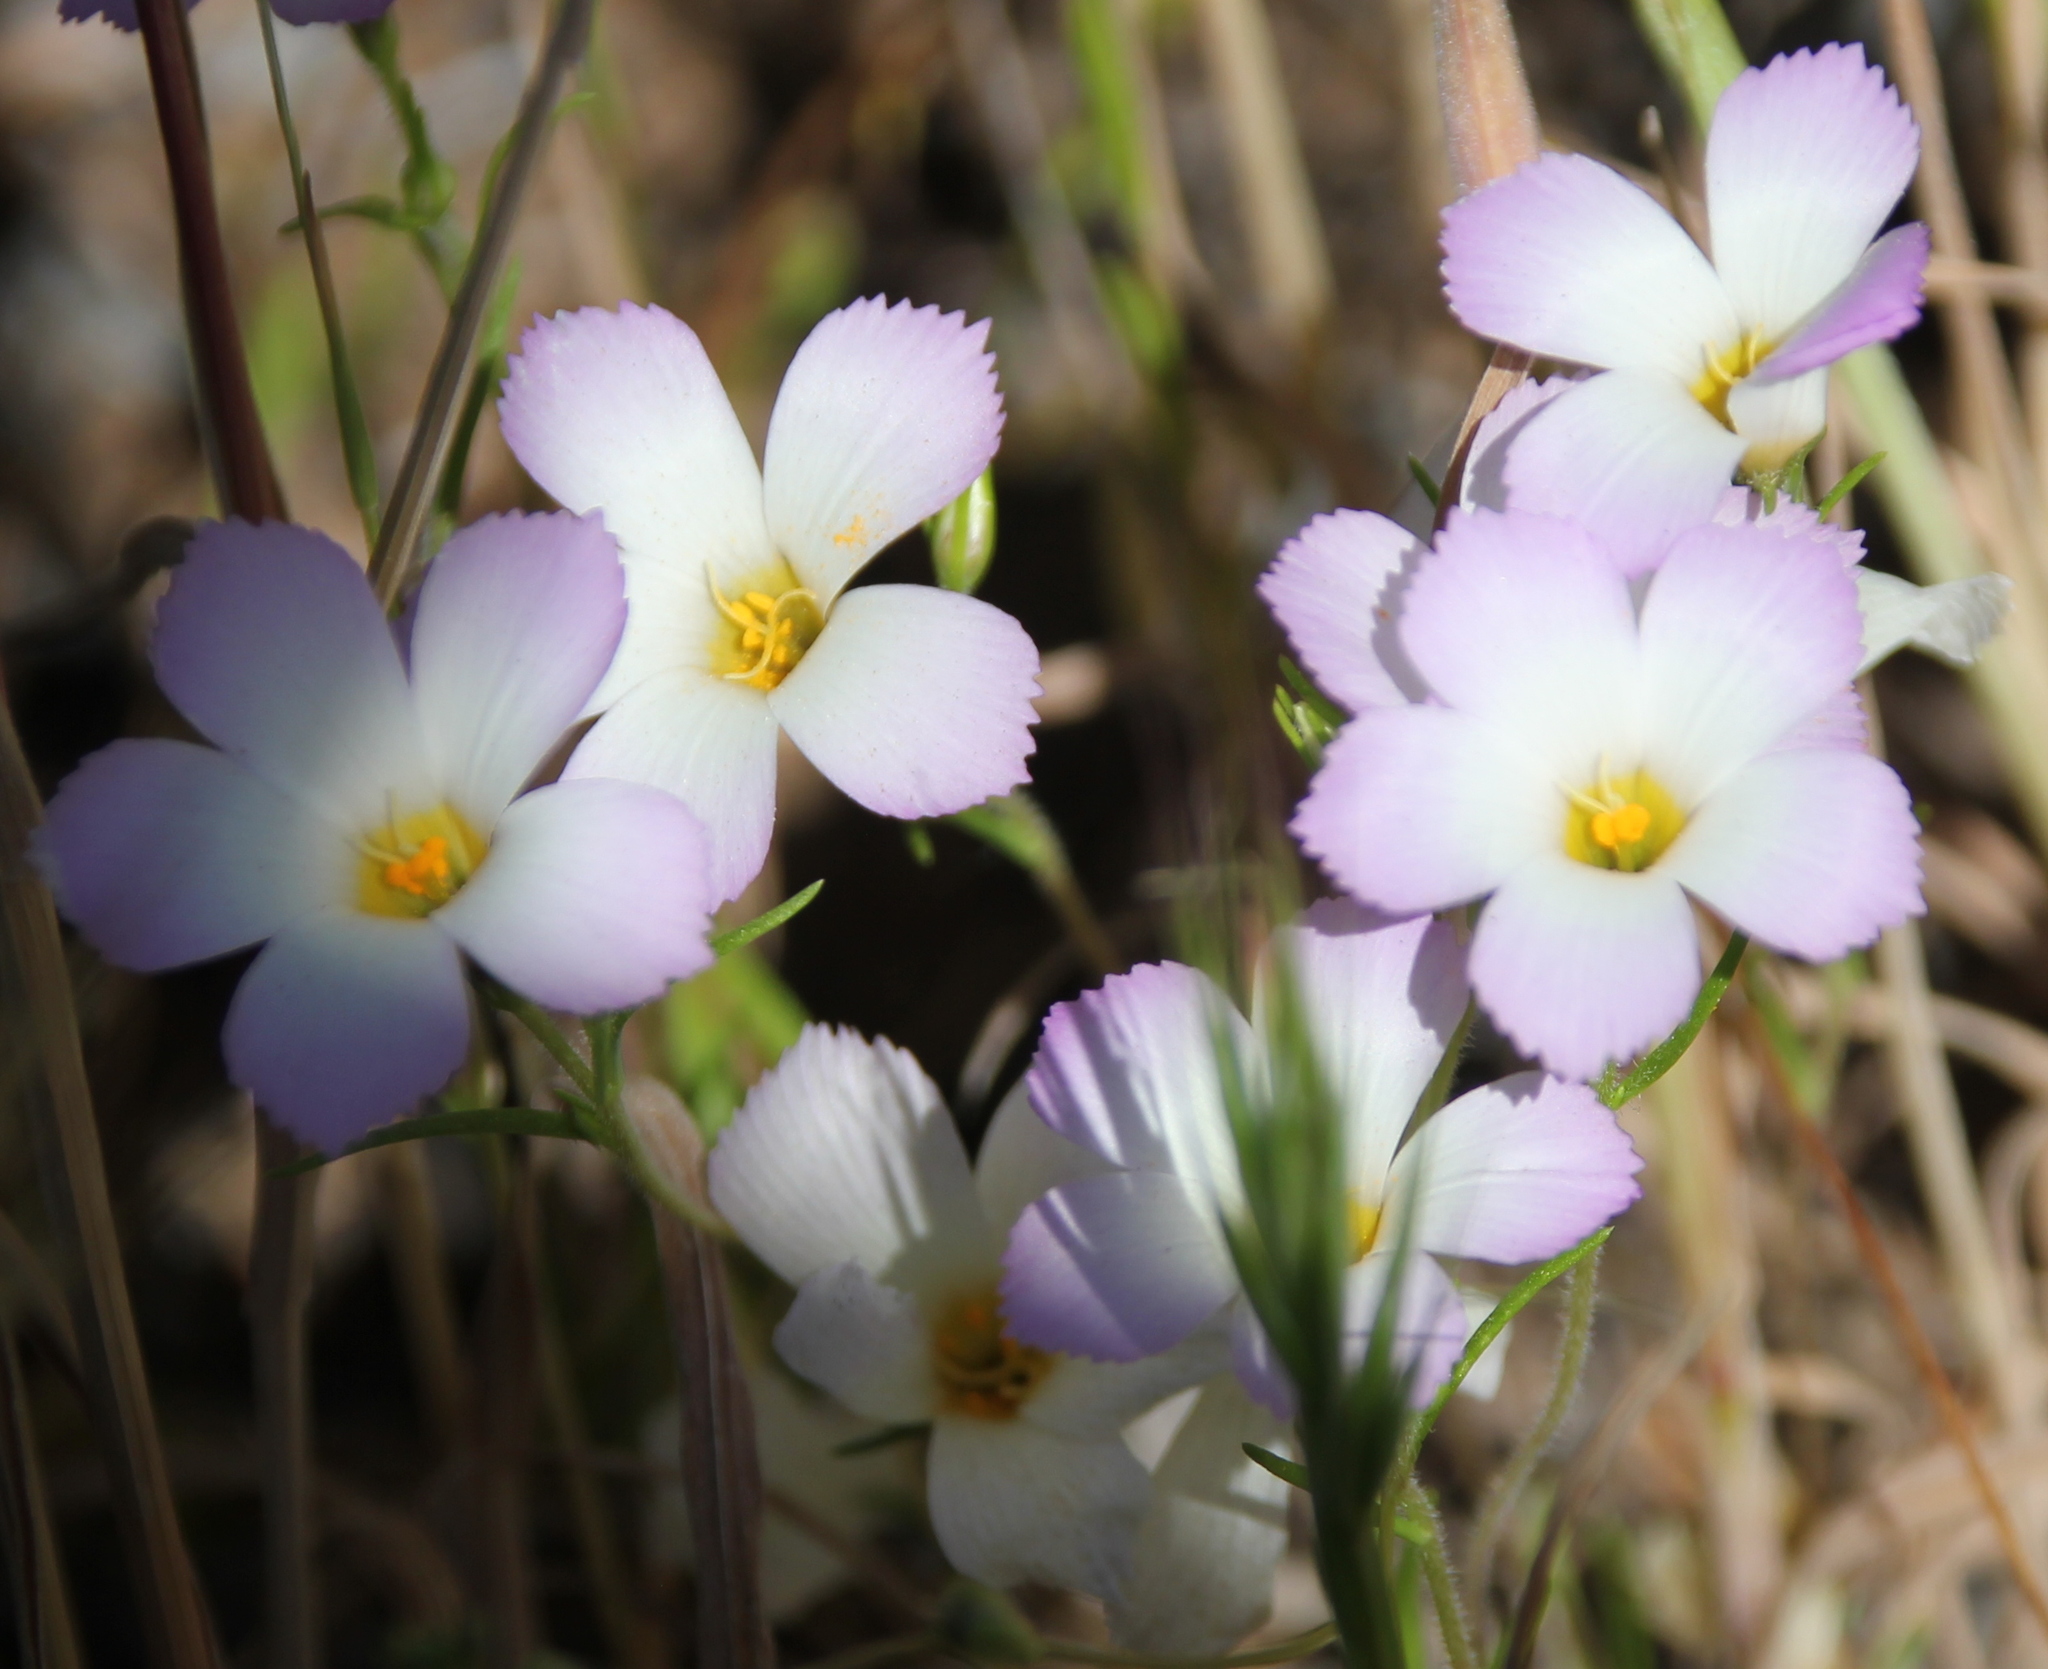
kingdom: Plantae
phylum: Tracheophyta
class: Magnoliopsida
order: Ericales
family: Polemoniaceae
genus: Linanthus
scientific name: Linanthus dianthiflorus
